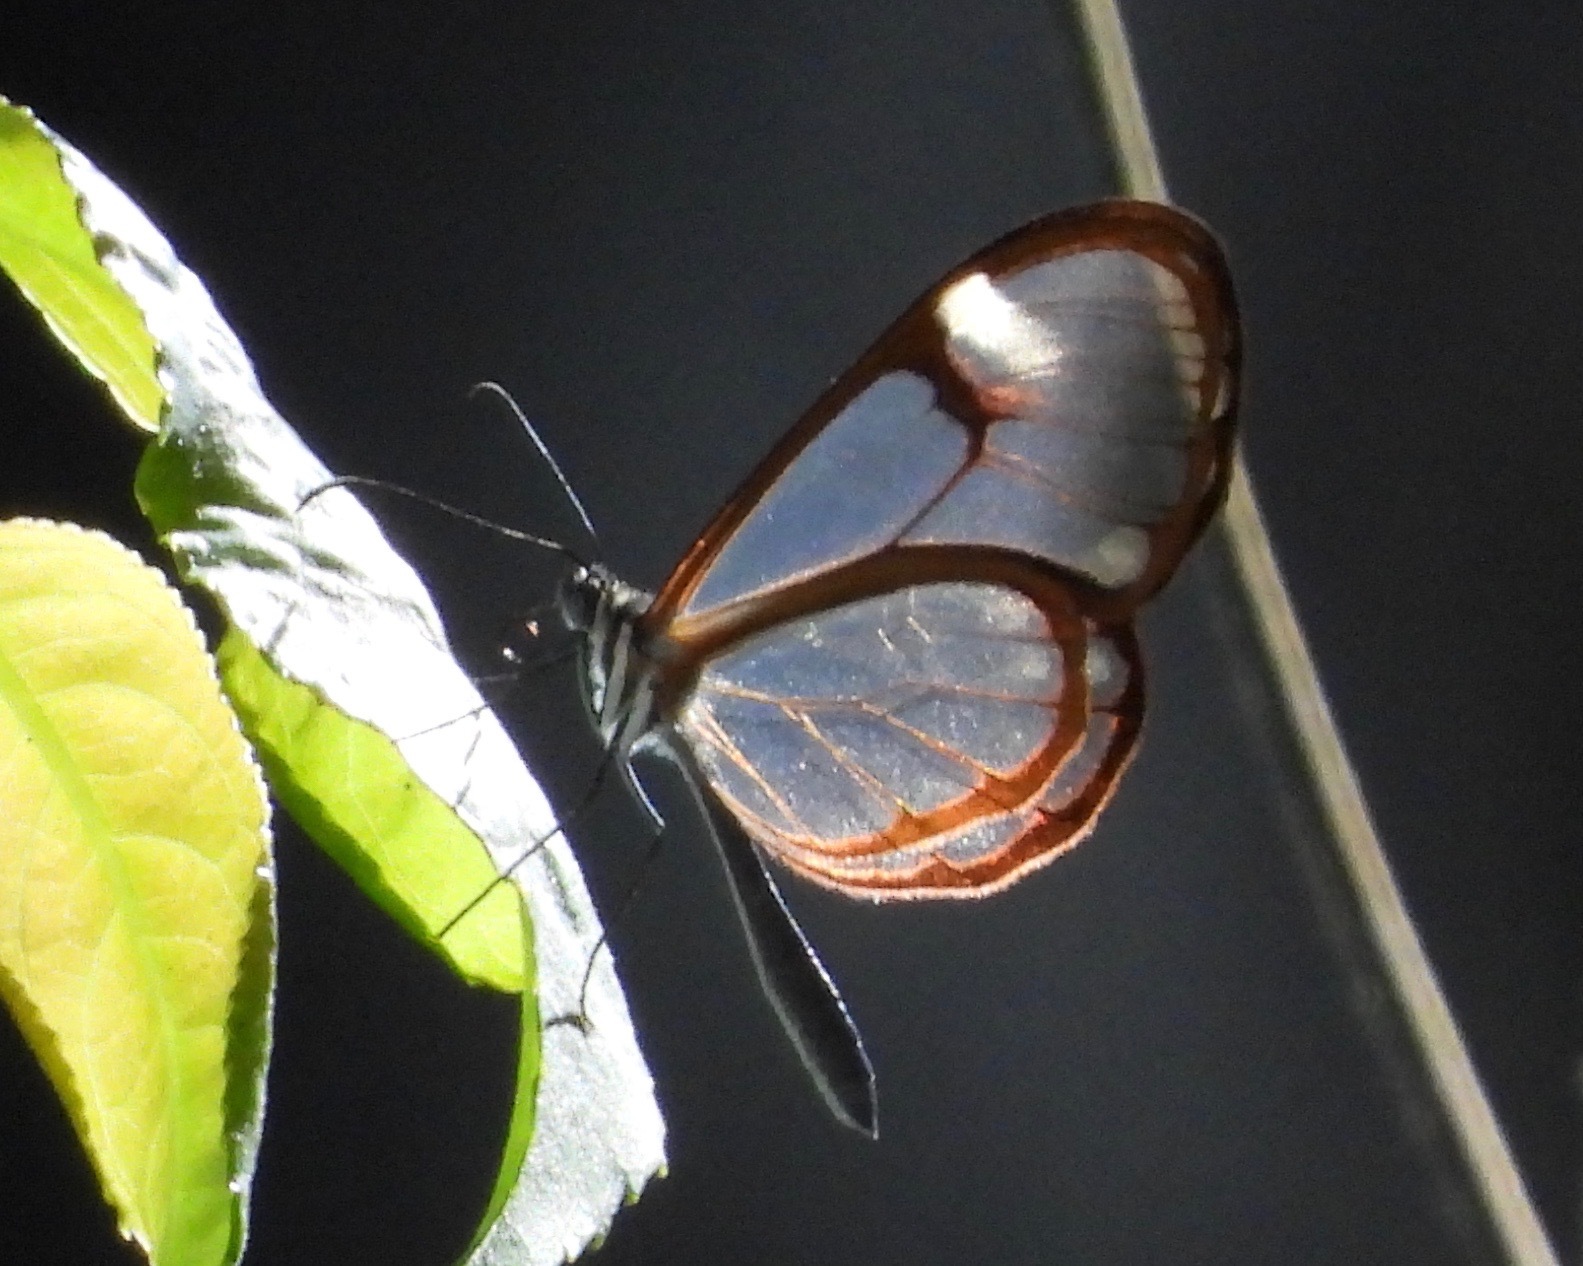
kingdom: Animalia
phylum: Arthropoda
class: Insecta
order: Lepidoptera
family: Nymphalidae
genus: Pteronymia
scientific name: Pteronymia simplex
